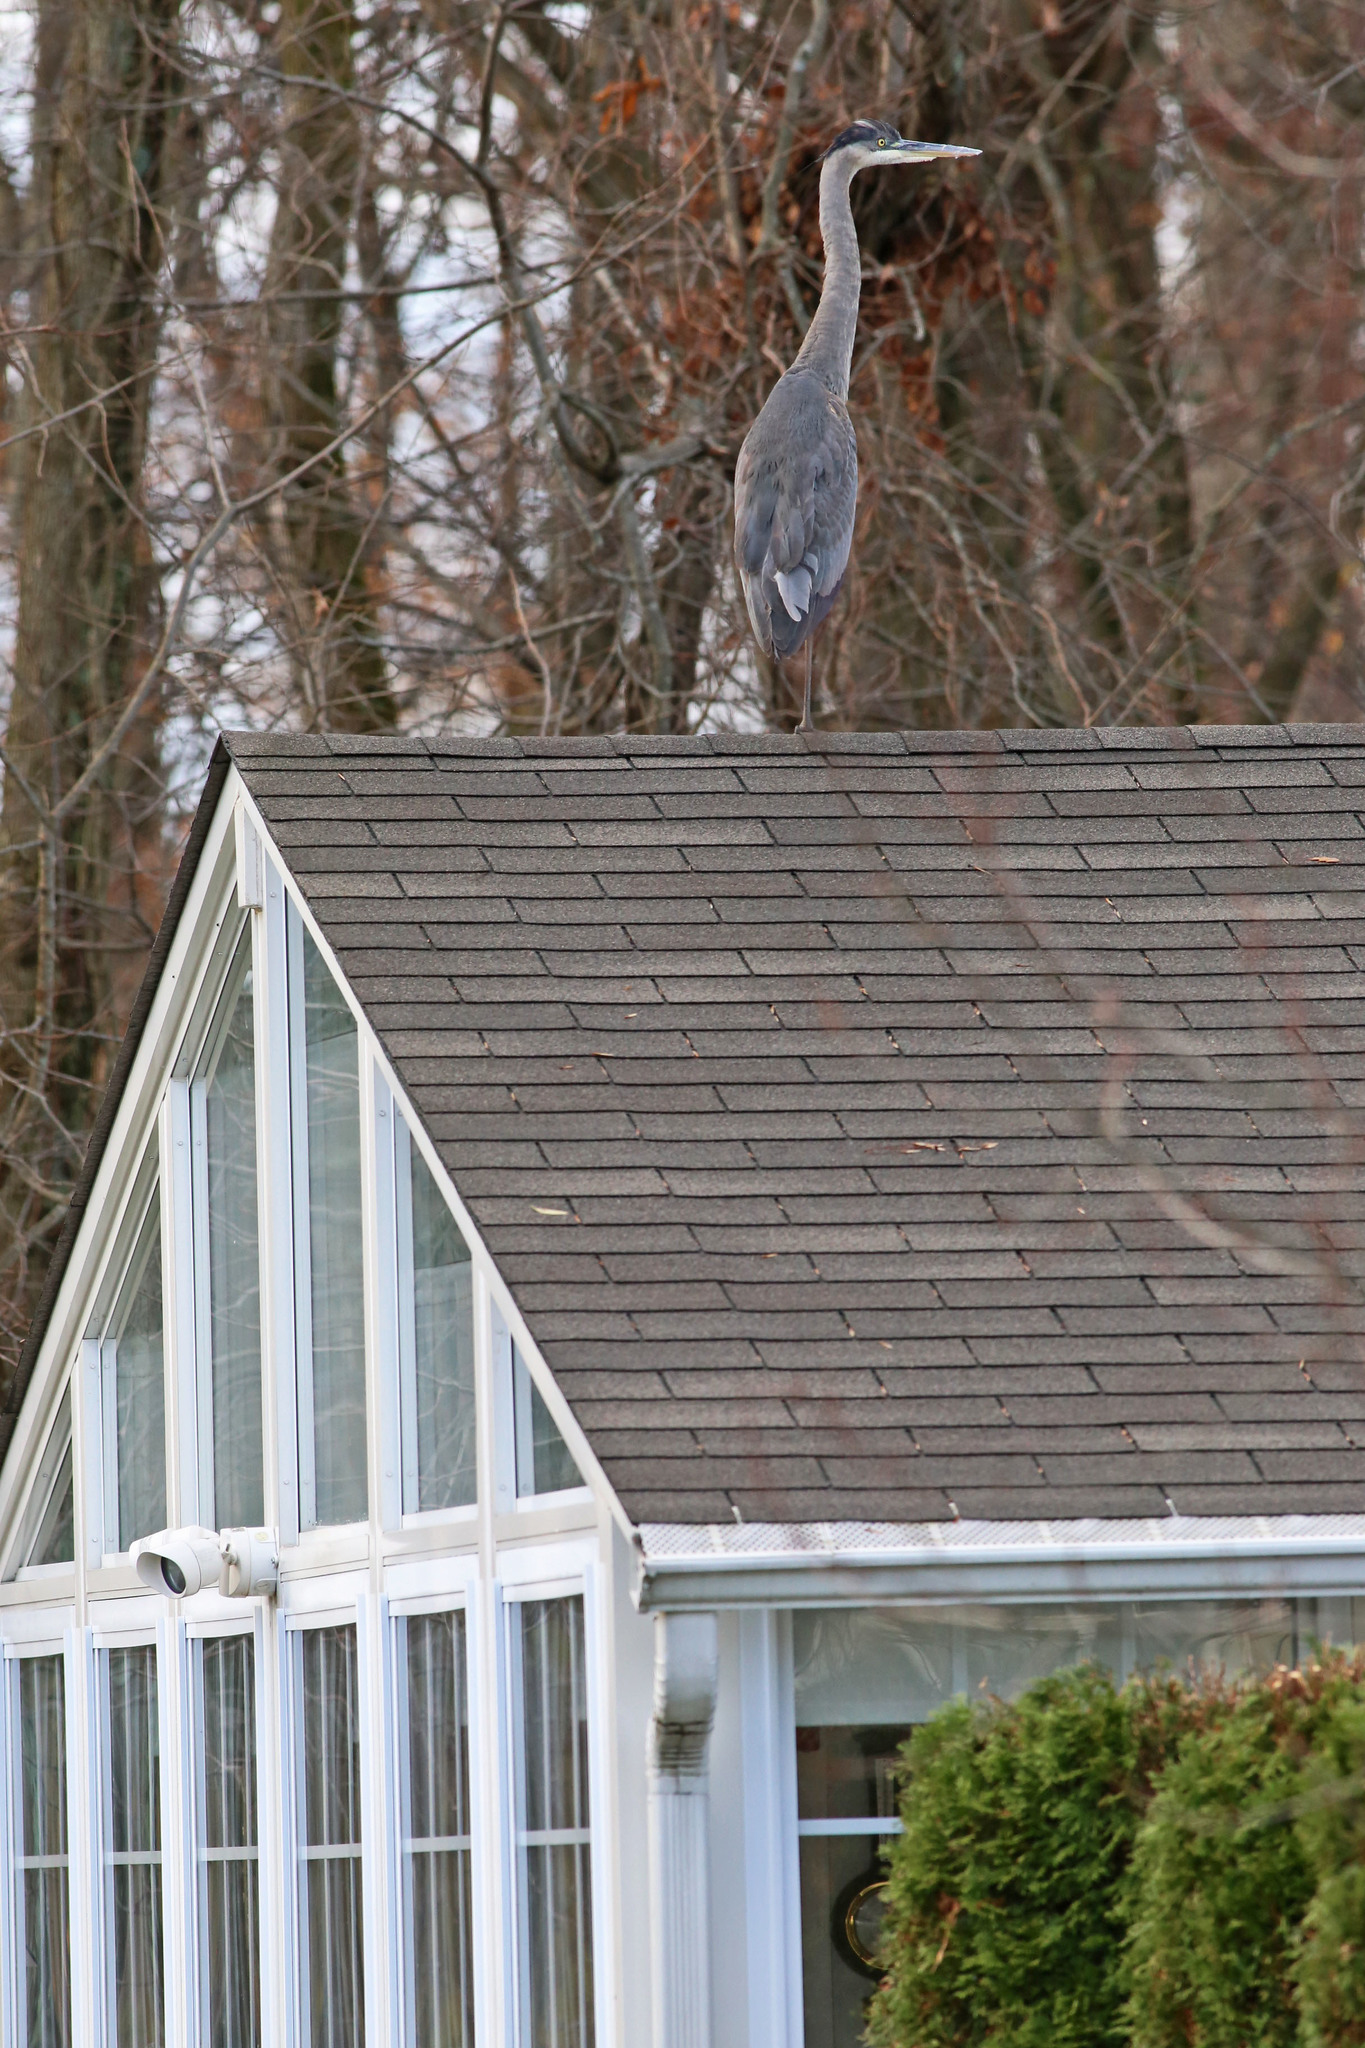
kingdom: Animalia
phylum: Chordata
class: Aves
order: Pelecaniformes
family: Ardeidae
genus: Ardea
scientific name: Ardea herodias
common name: Great blue heron
